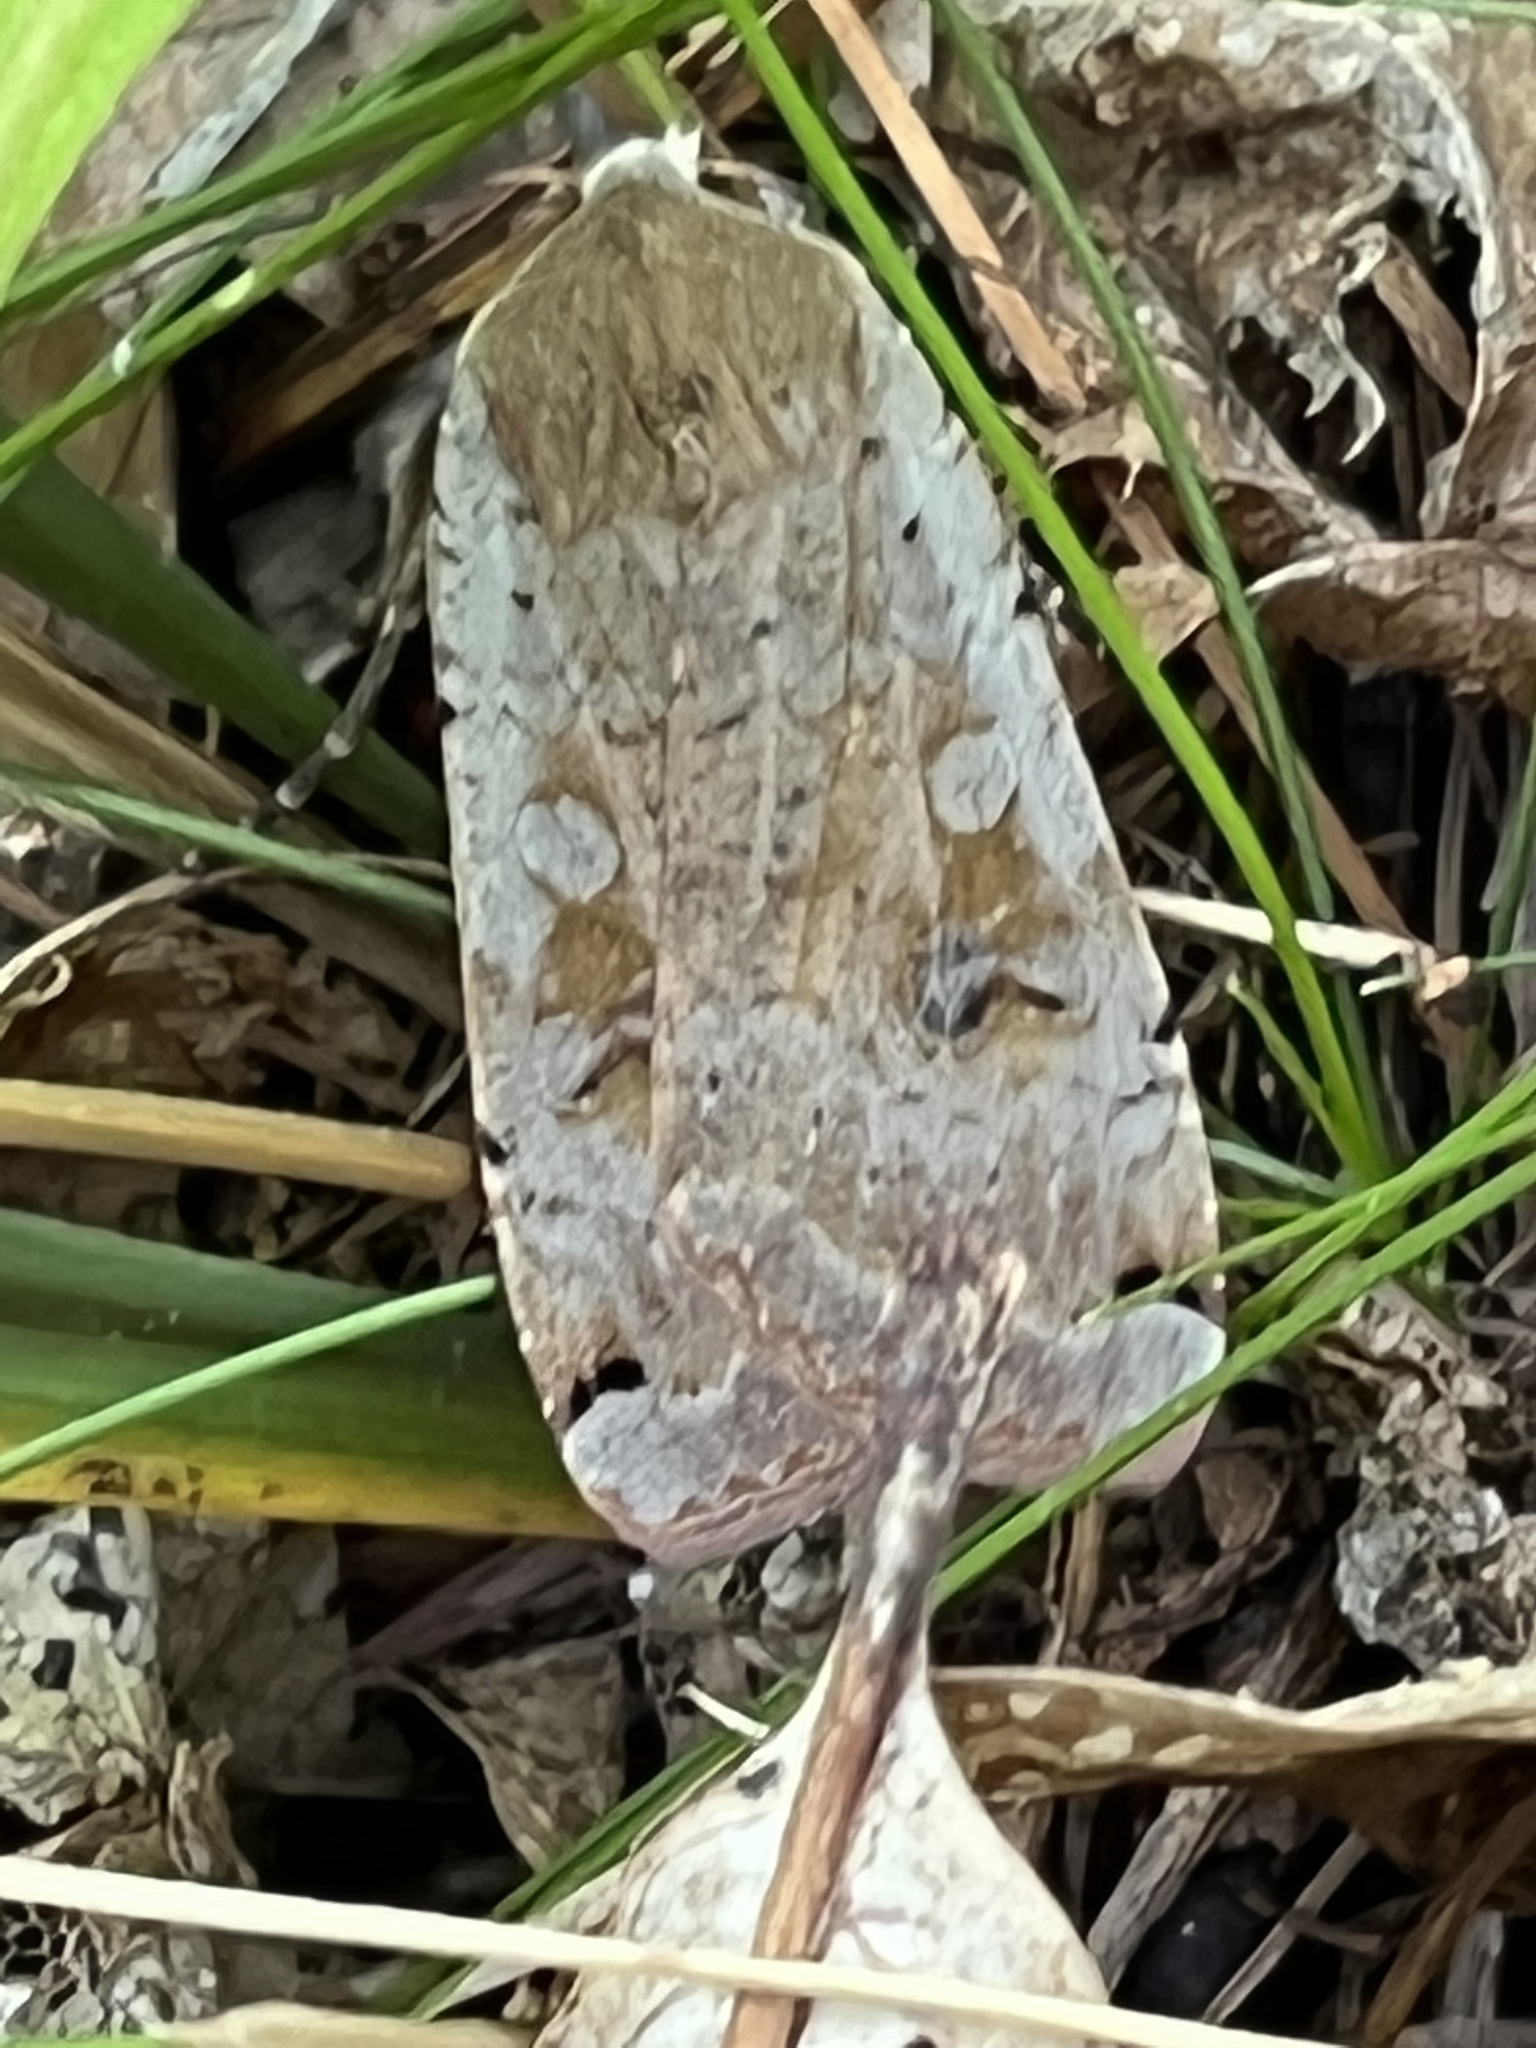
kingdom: Animalia
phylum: Arthropoda
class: Insecta
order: Lepidoptera
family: Noctuidae
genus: Noctua
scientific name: Noctua pronuba
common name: Large yellow underwing
